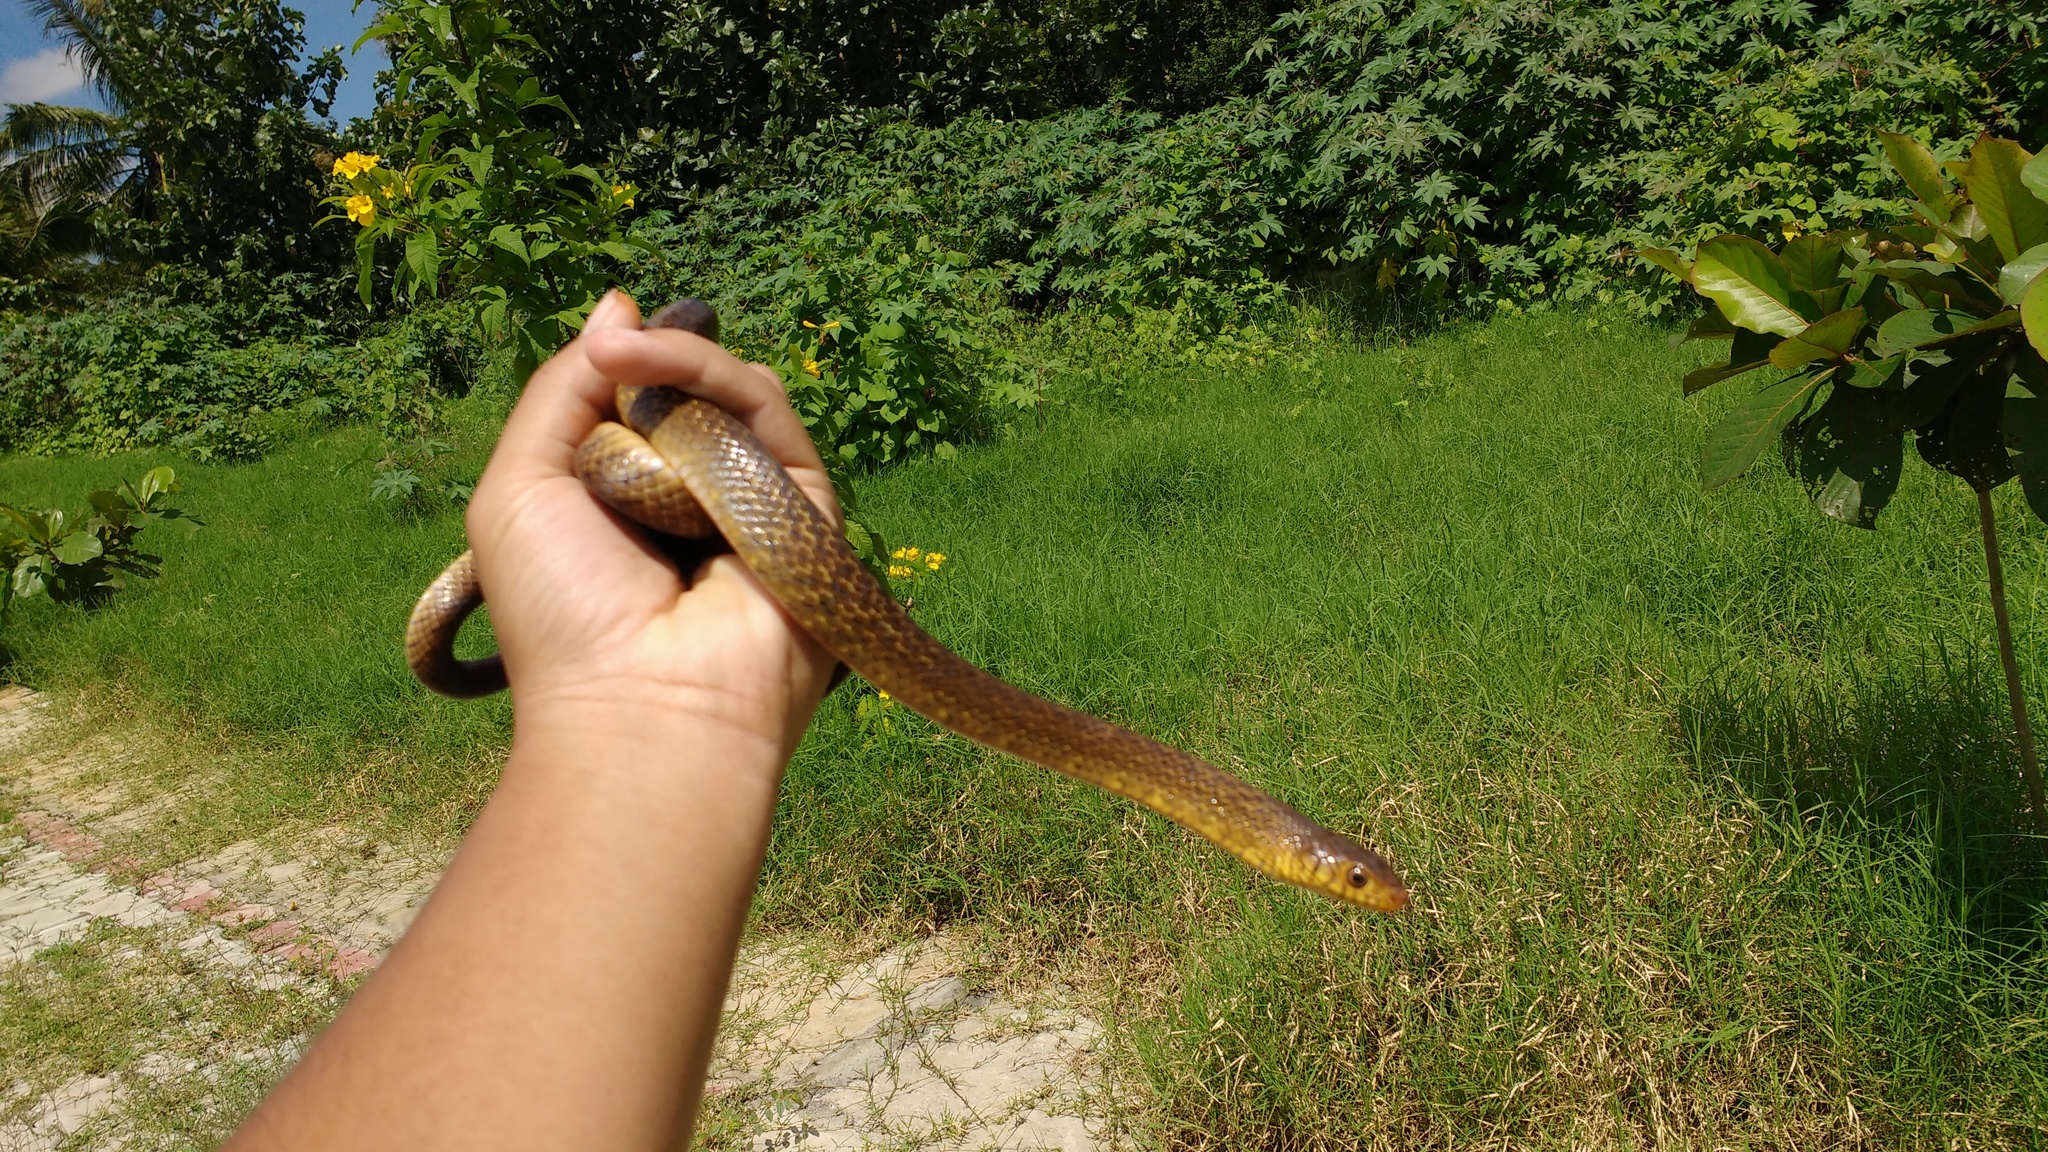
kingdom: Animalia
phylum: Chordata
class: Squamata
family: Colubridae
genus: Ptyas
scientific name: Ptyas mucosa
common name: Oriental ratsnake
